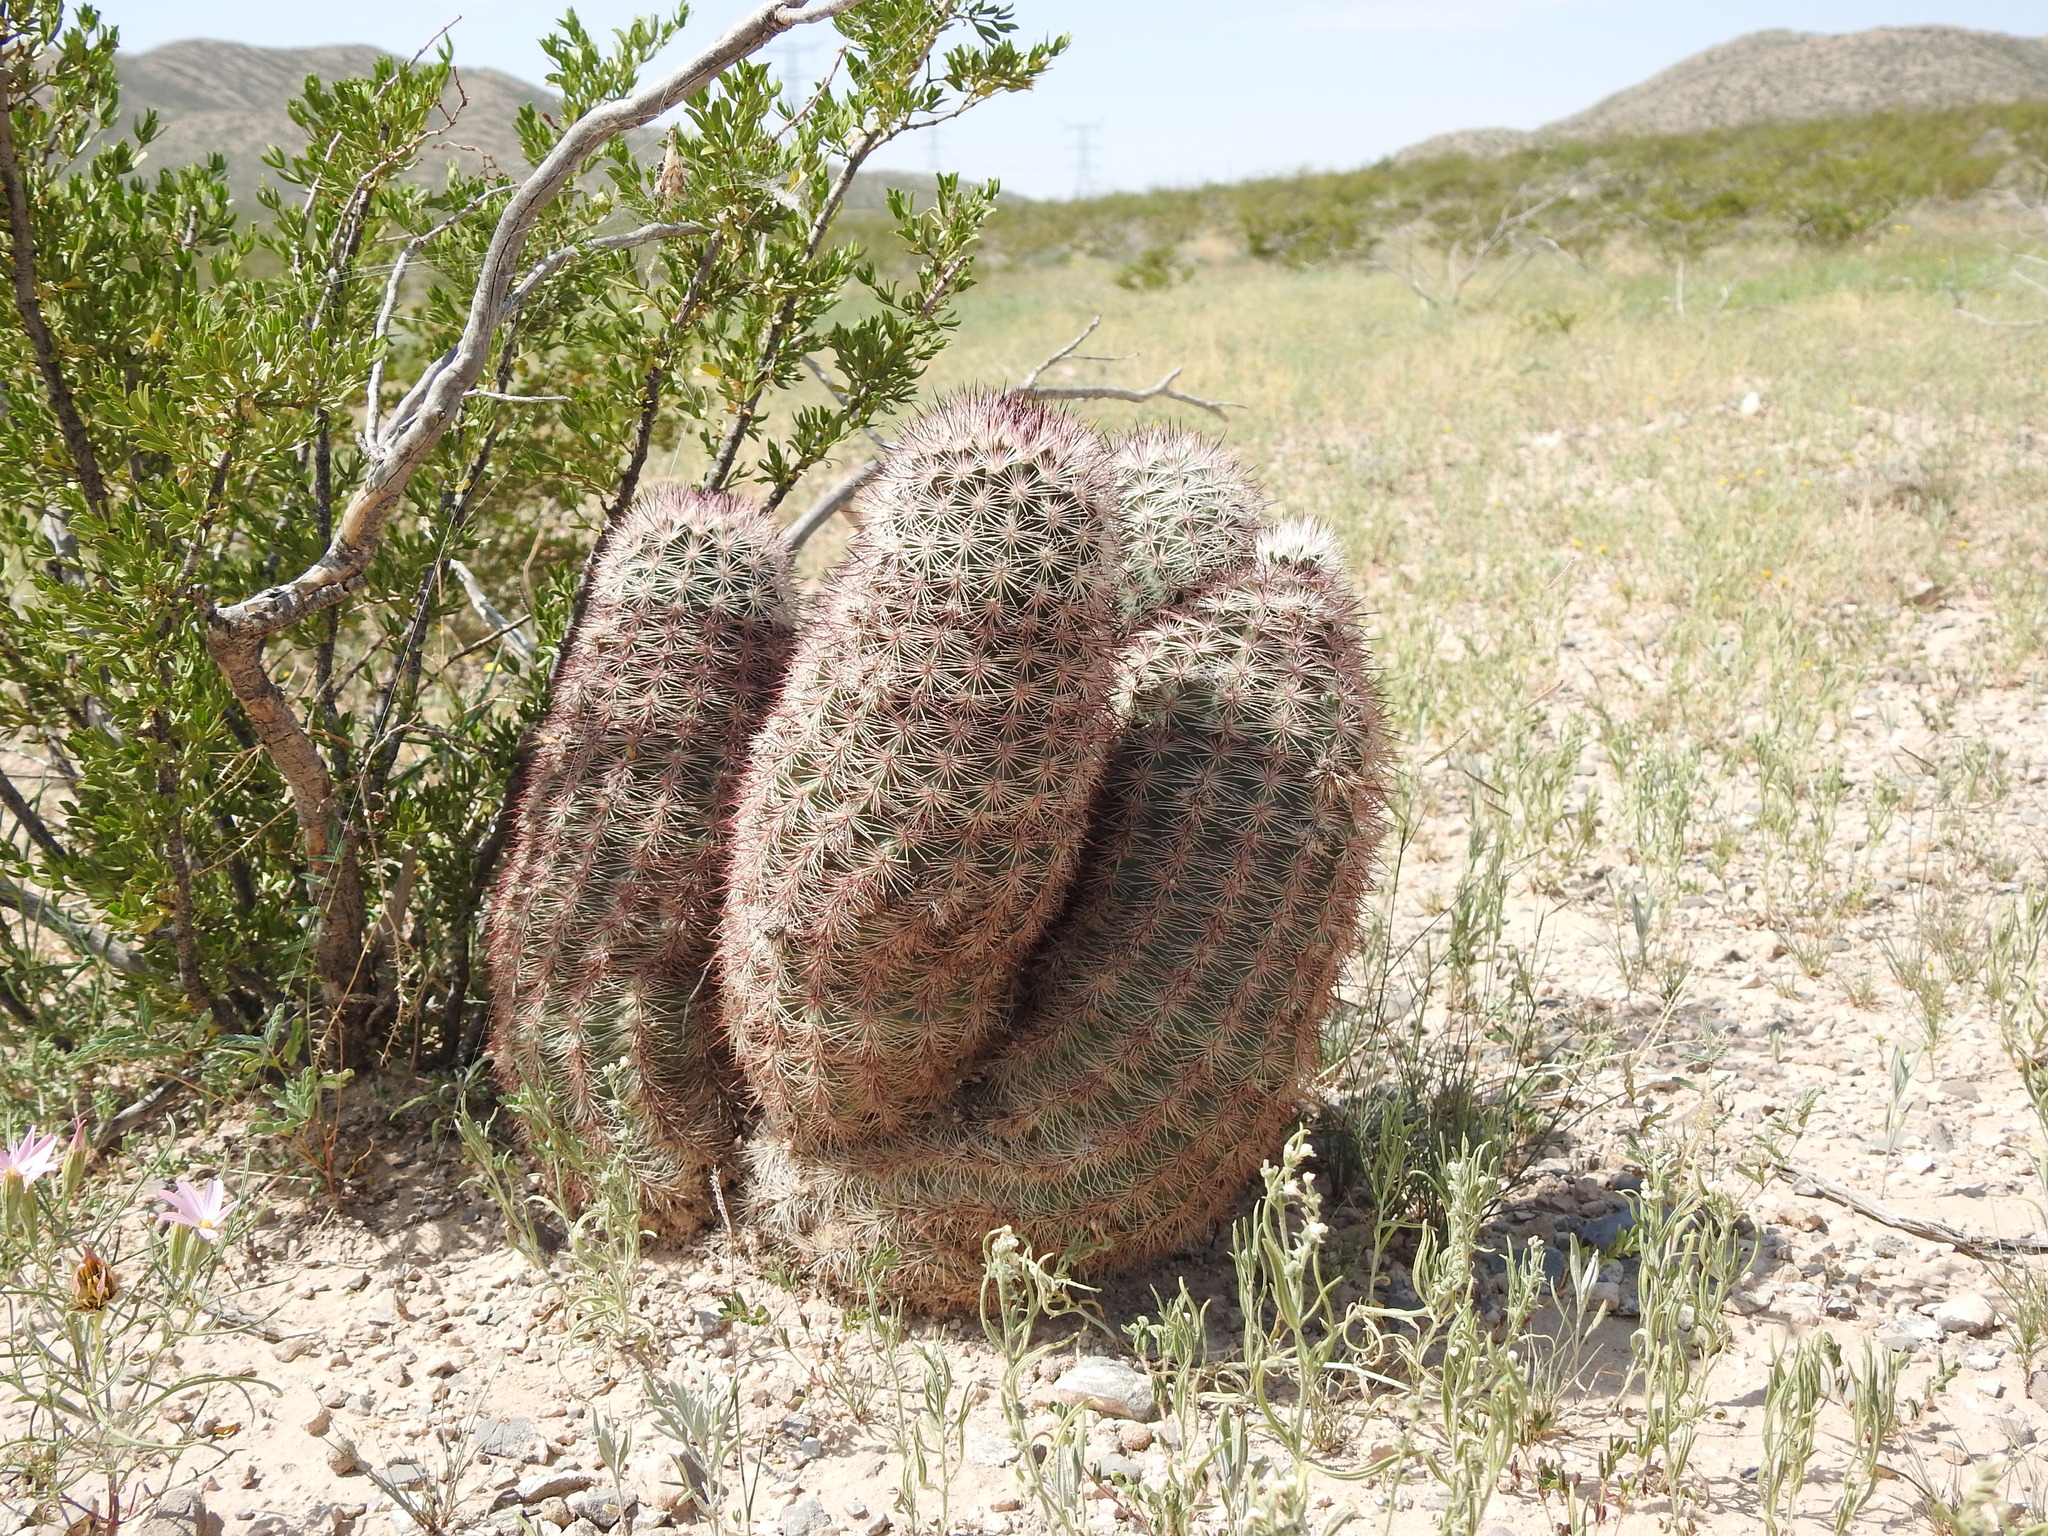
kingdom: Plantae
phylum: Tracheophyta
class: Magnoliopsida
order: Caryophyllales
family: Cactaceae
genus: Echinocereus
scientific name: Echinocereus dasyacanthus
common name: Spiny hedgehog cactus
